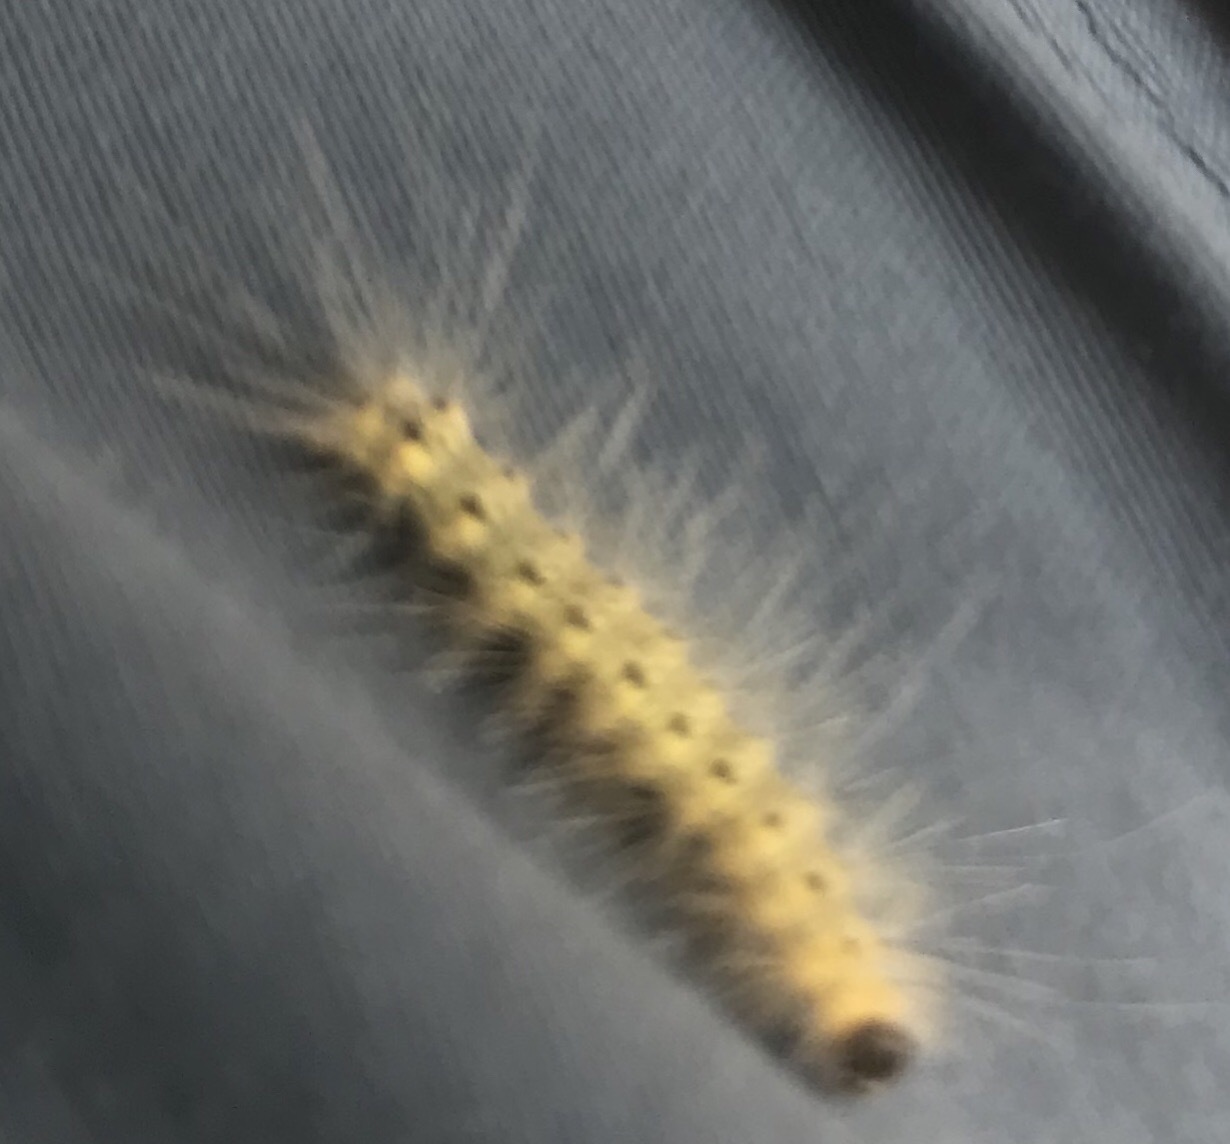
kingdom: Animalia
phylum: Arthropoda
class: Insecta
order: Lepidoptera
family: Erebidae
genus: Hyphantria
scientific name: Hyphantria cunea
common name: American white moth
